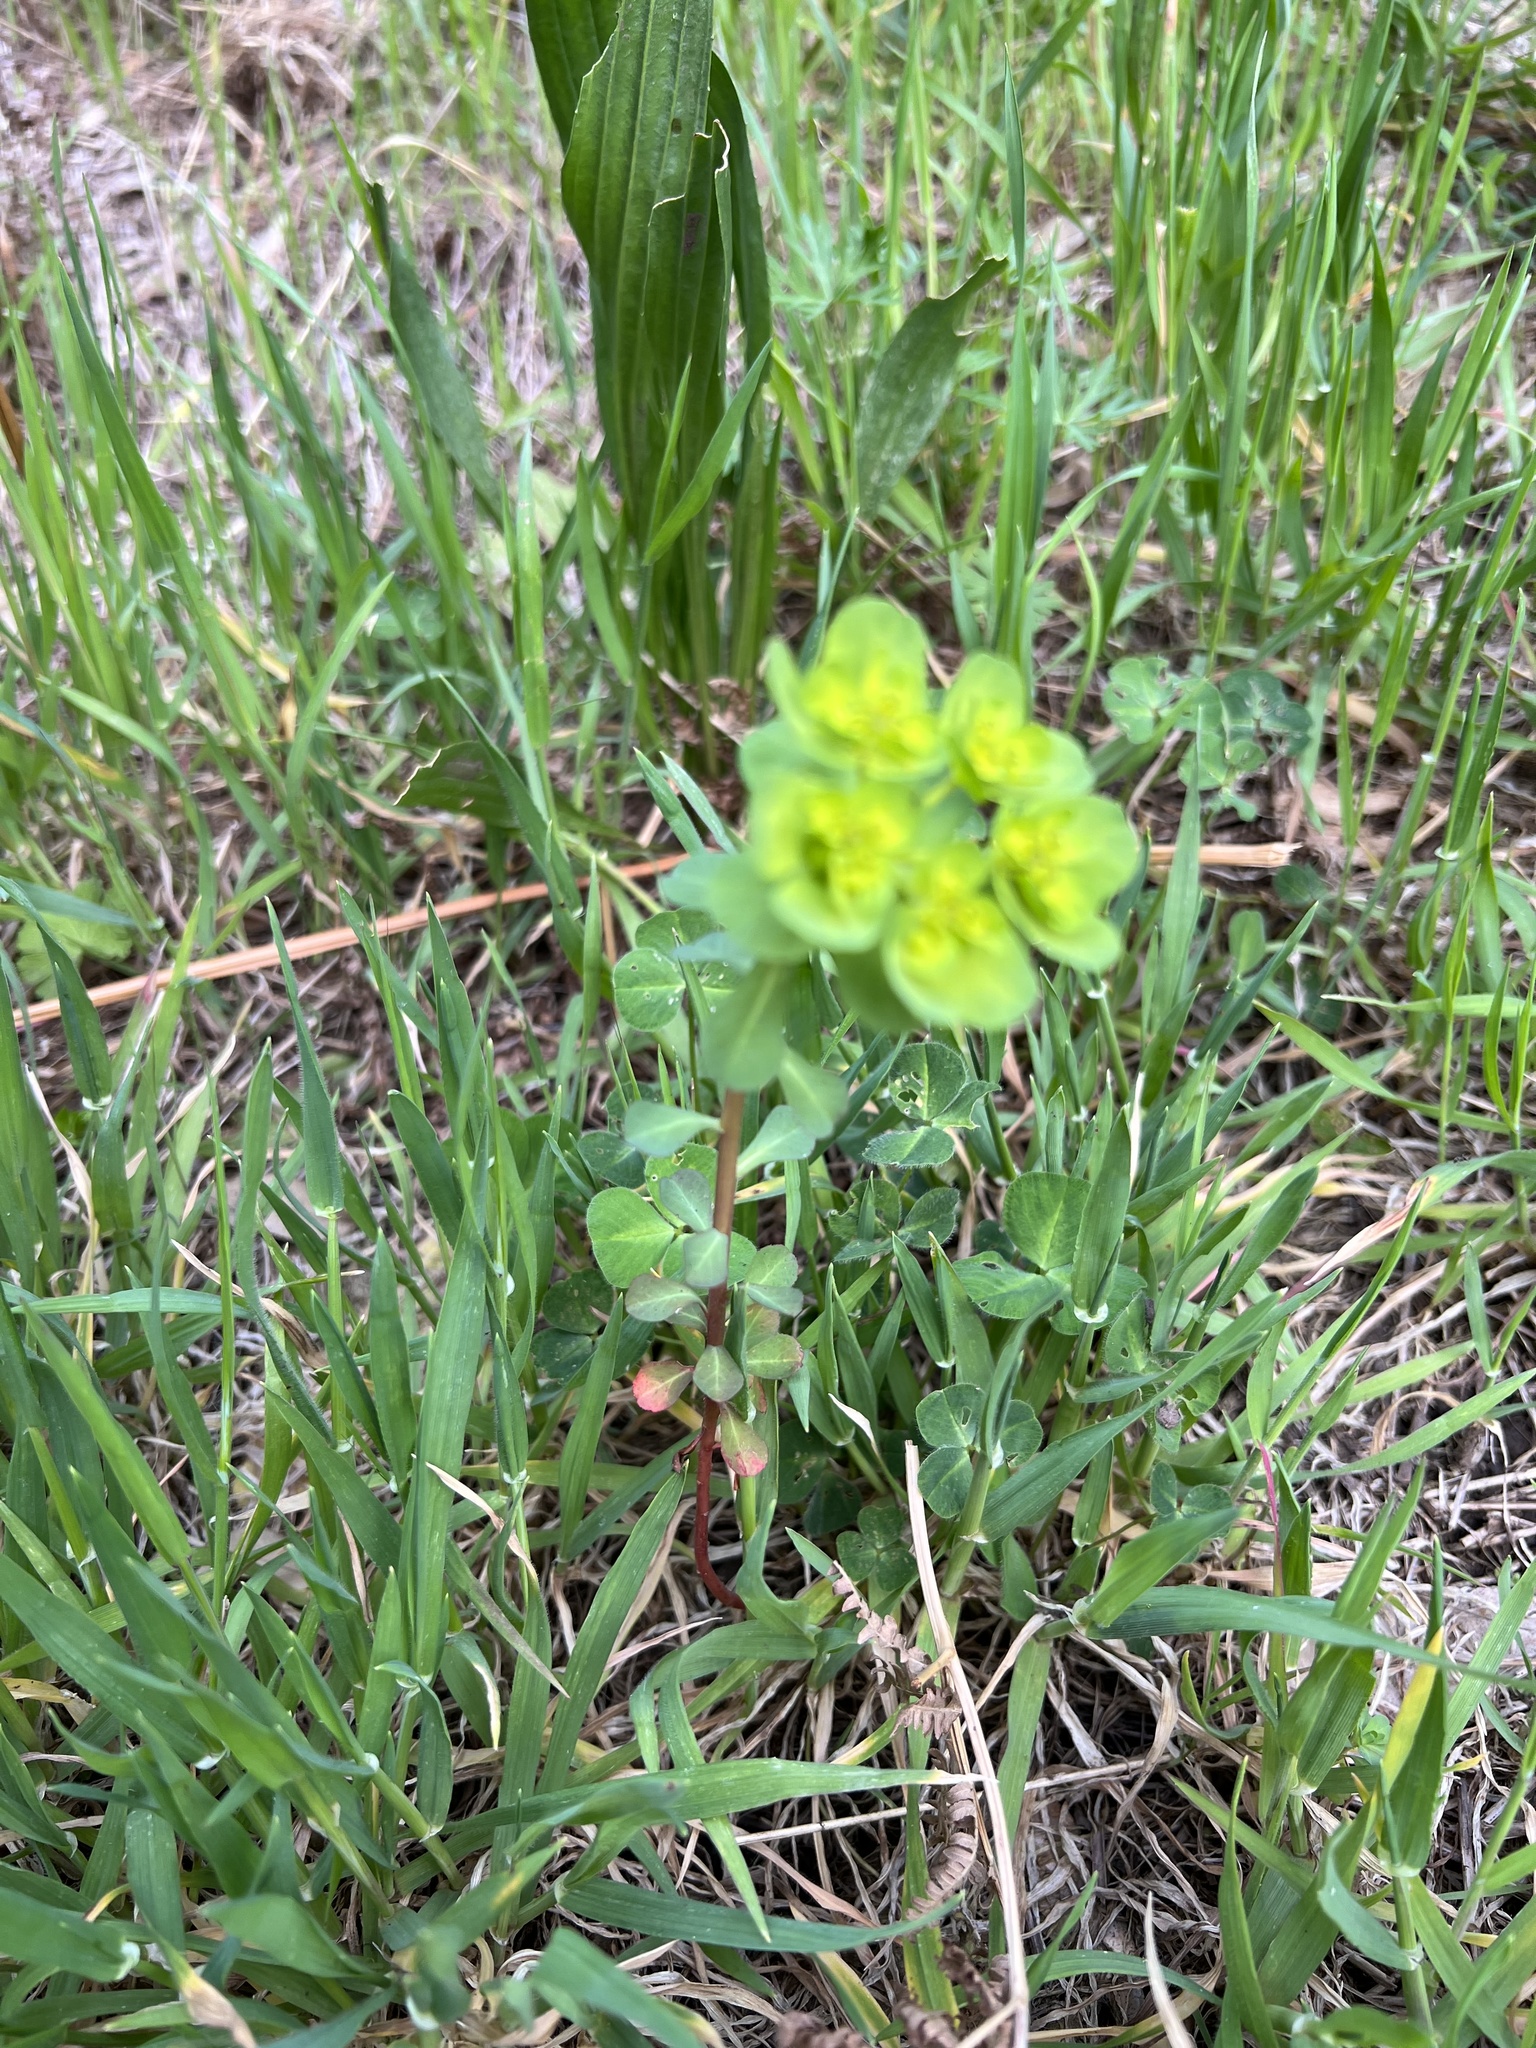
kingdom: Plantae
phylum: Tracheophyta
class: Magnoliopsida
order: Malpighiales
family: Euphorbiaceae
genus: Euphorbia
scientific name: Euphorbia helioscopia
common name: Sun spurge
